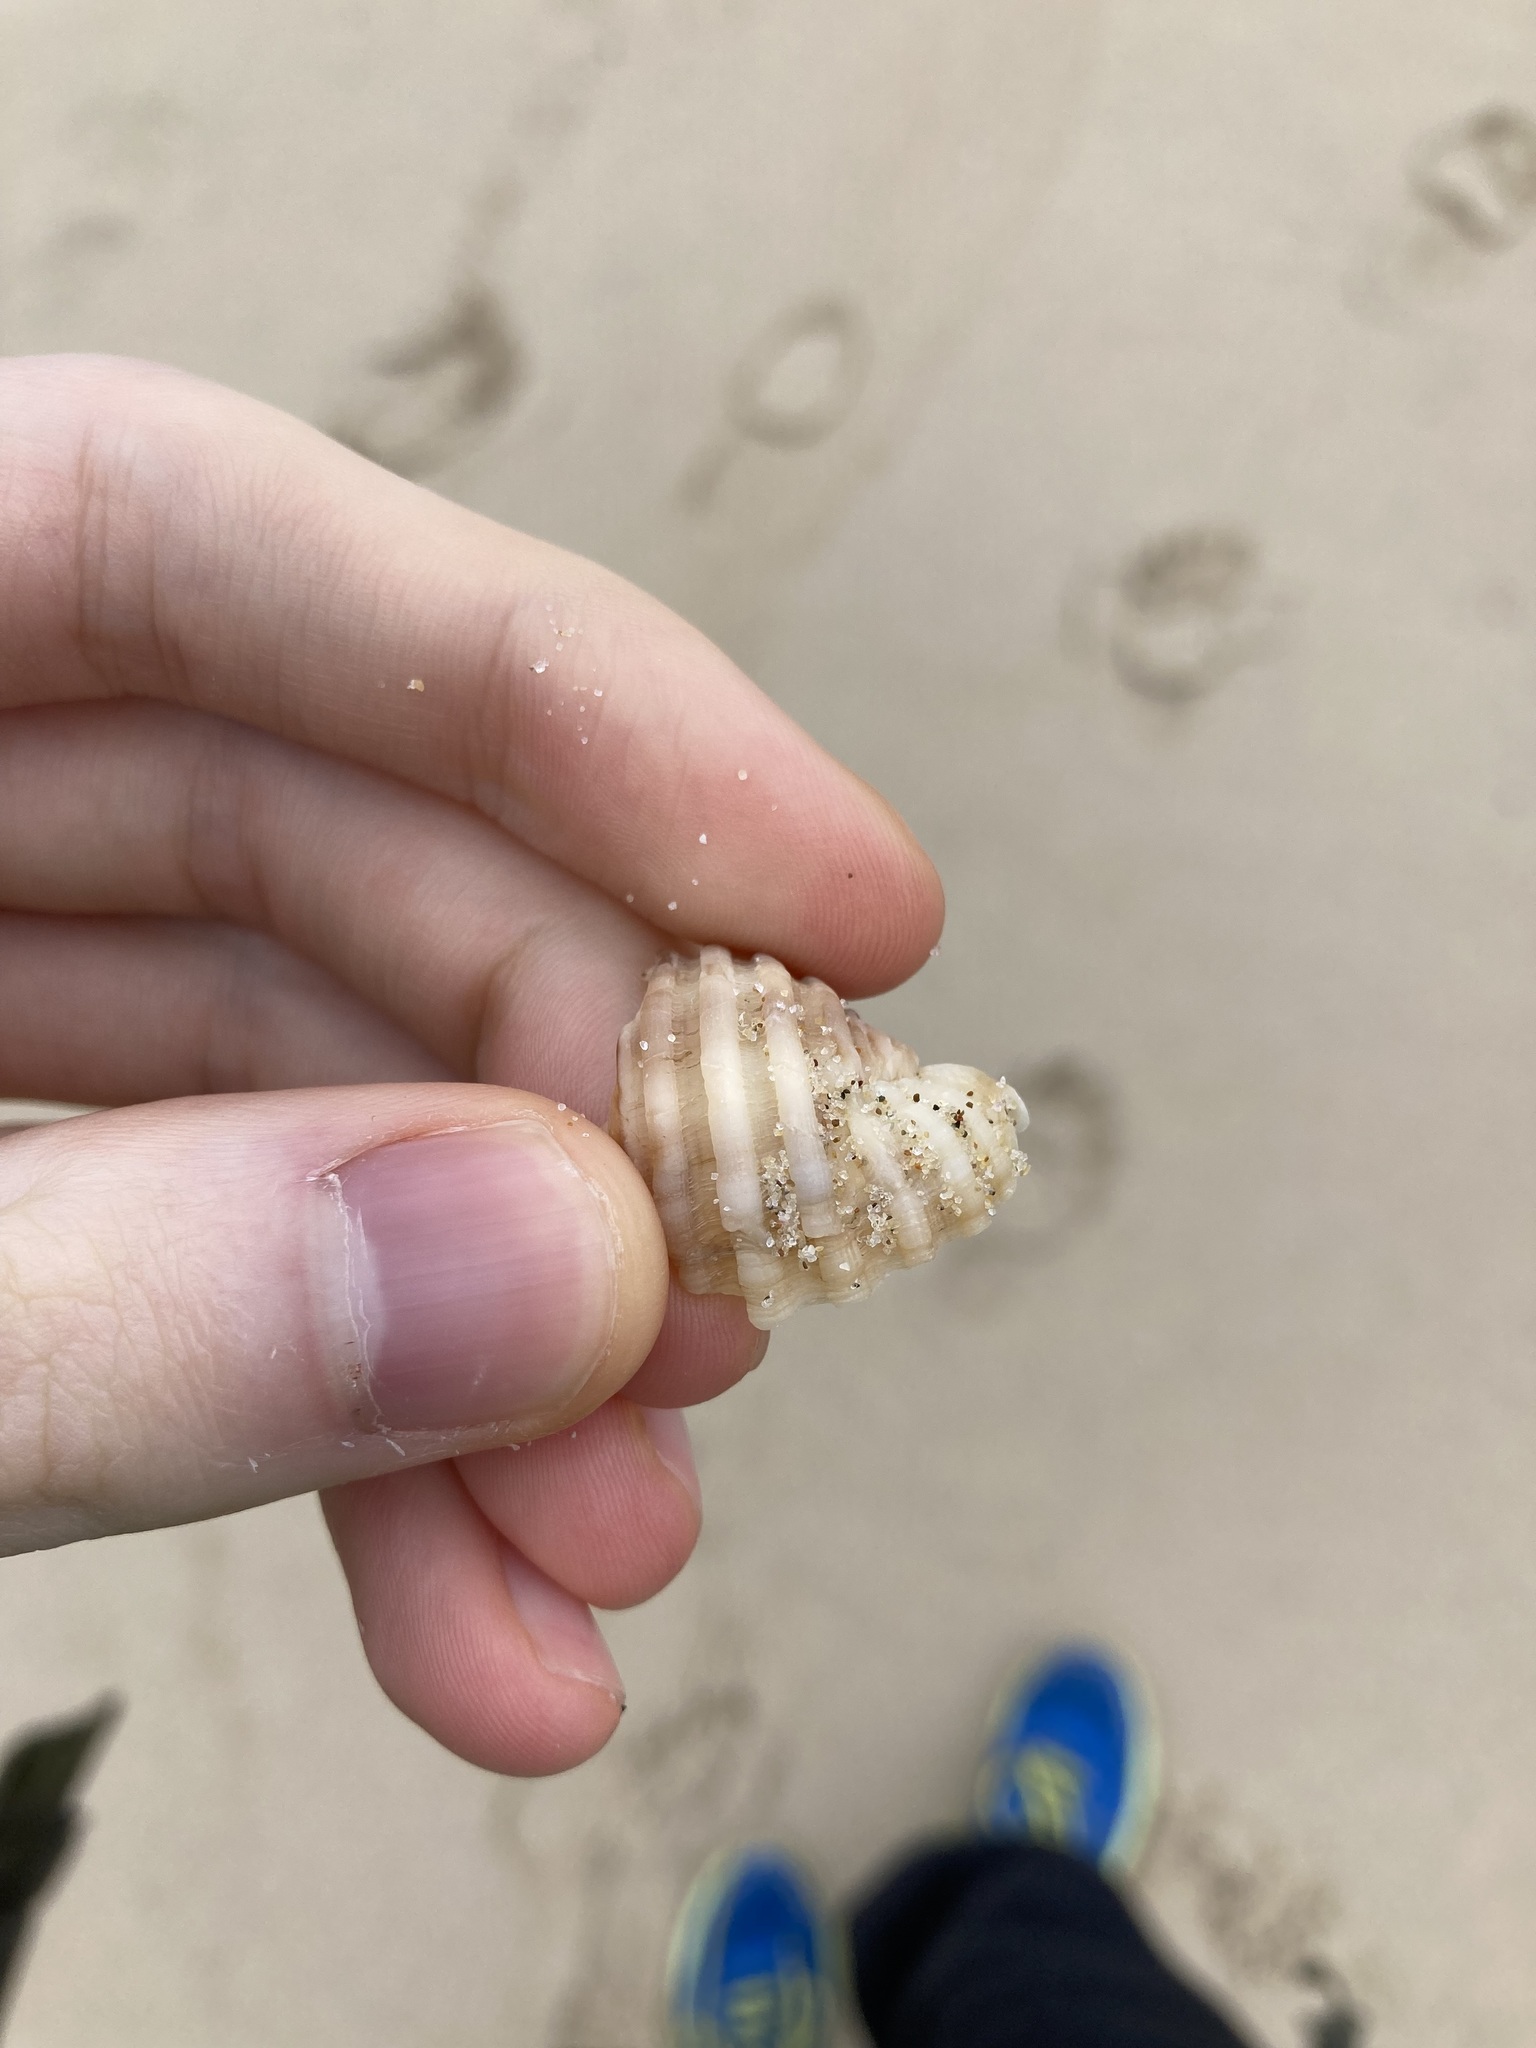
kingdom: Animalia
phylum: Mollusca
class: Gastropoda
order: Neogastropoda
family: Muricidae
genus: Dicathais
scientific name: Dicathais orbita
